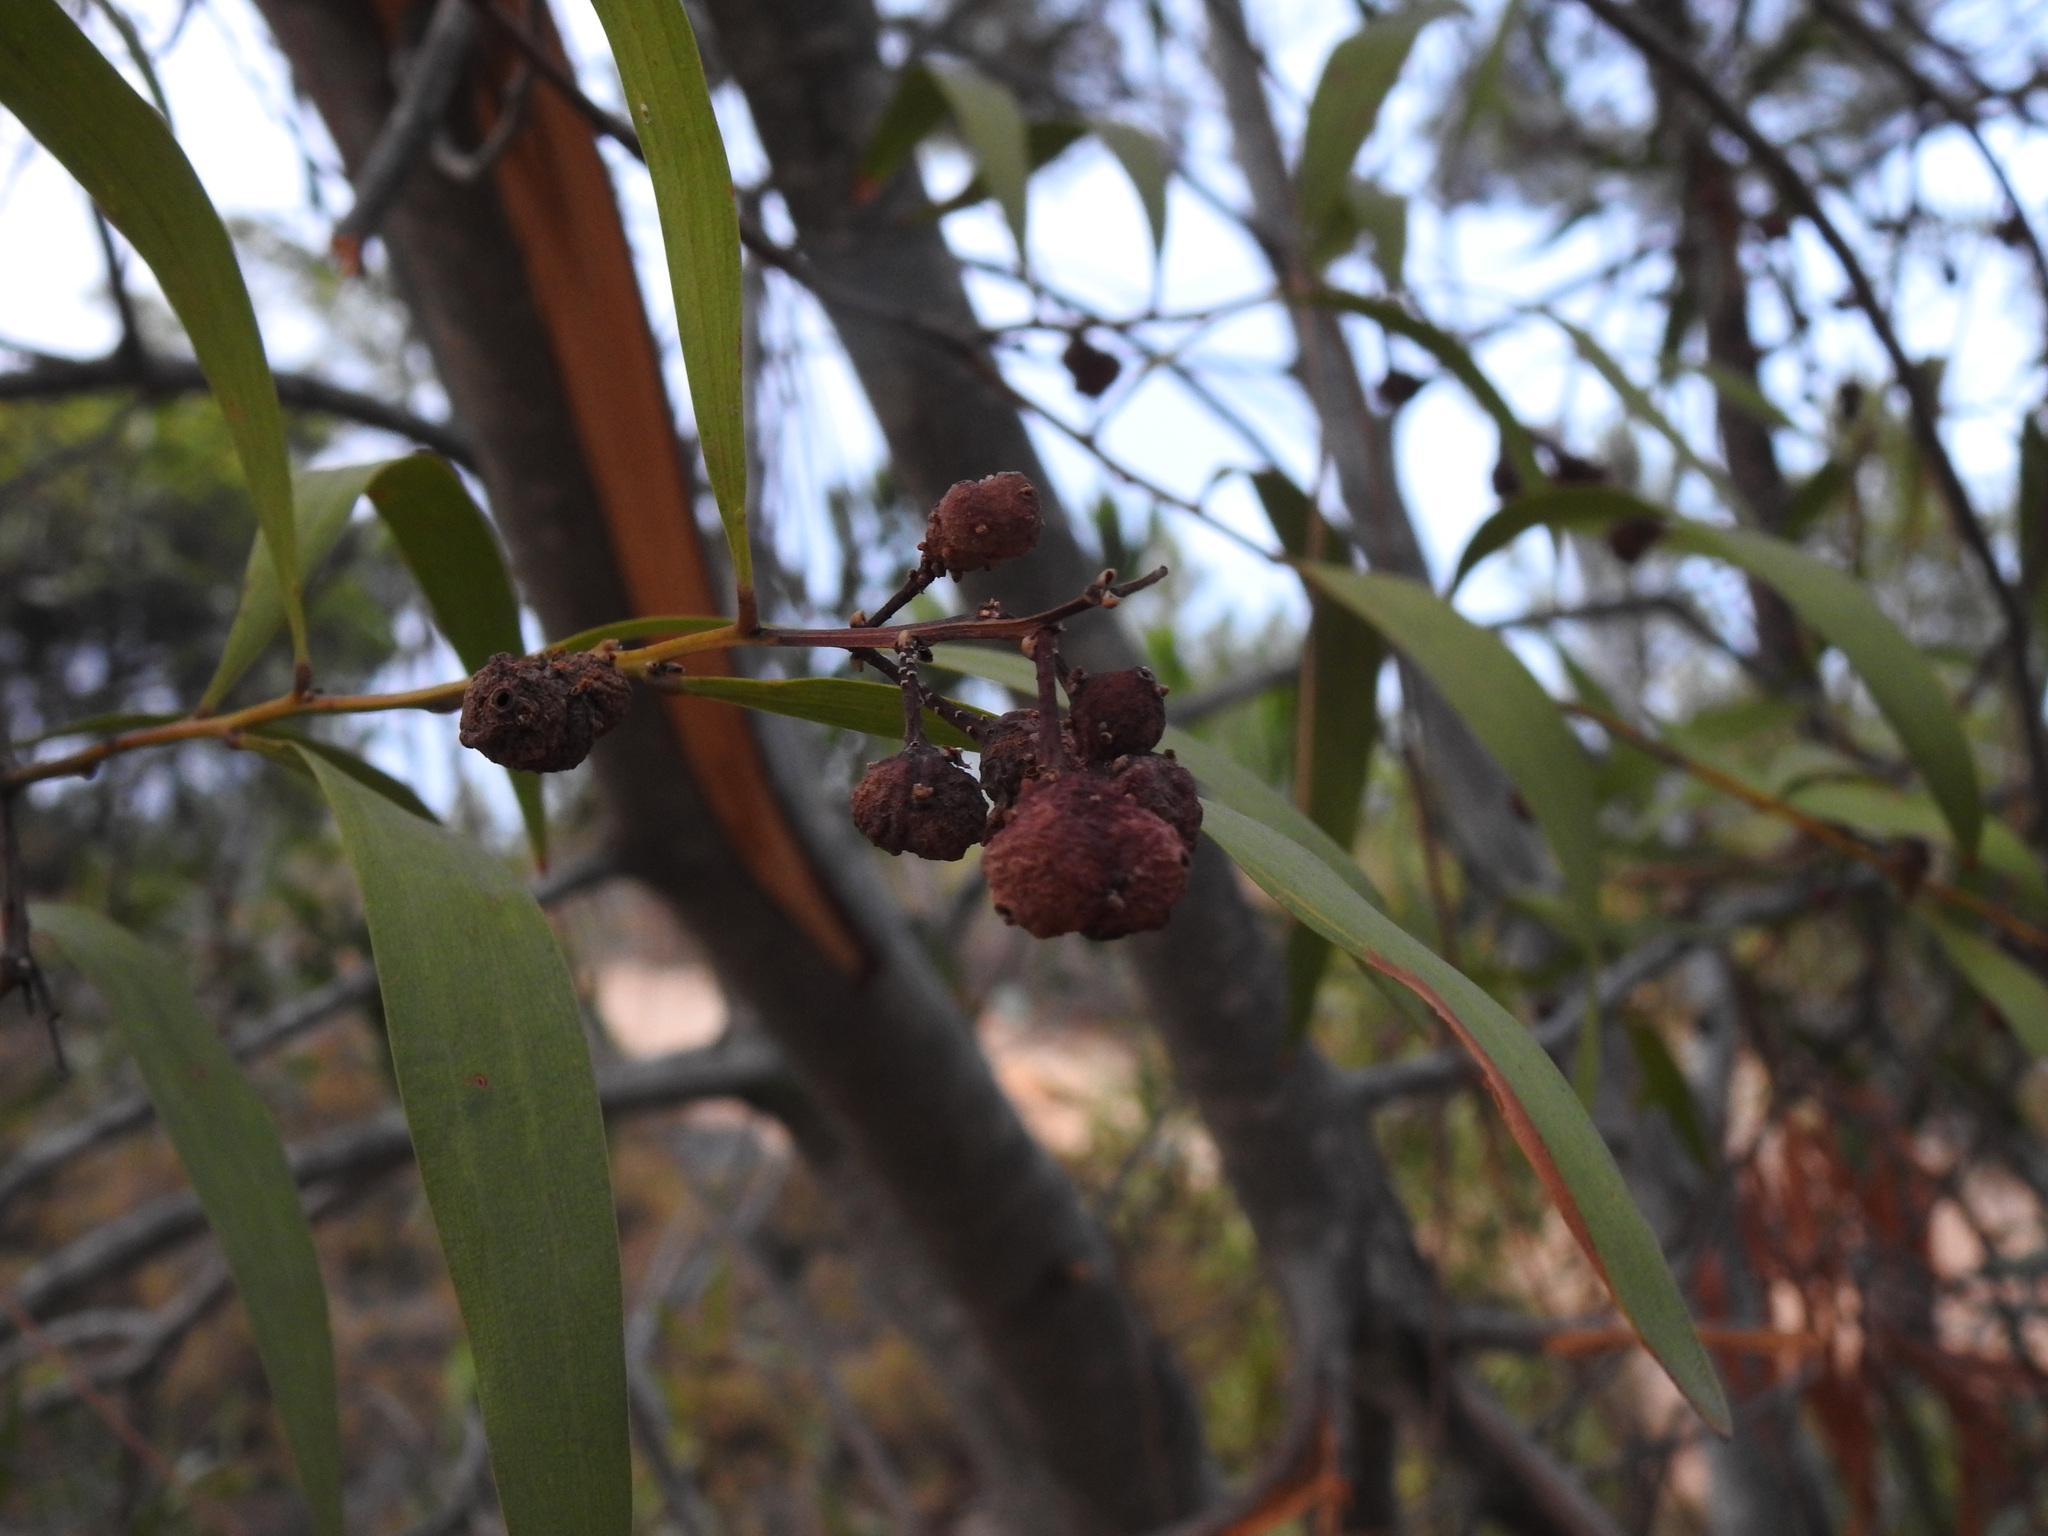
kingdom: Plantae
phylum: Tracheophyta
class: Magnoliopsida
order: Fabales
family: Fabaceae
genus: Acacia
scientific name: Acacia longifolia
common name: Sydney golden wattle
